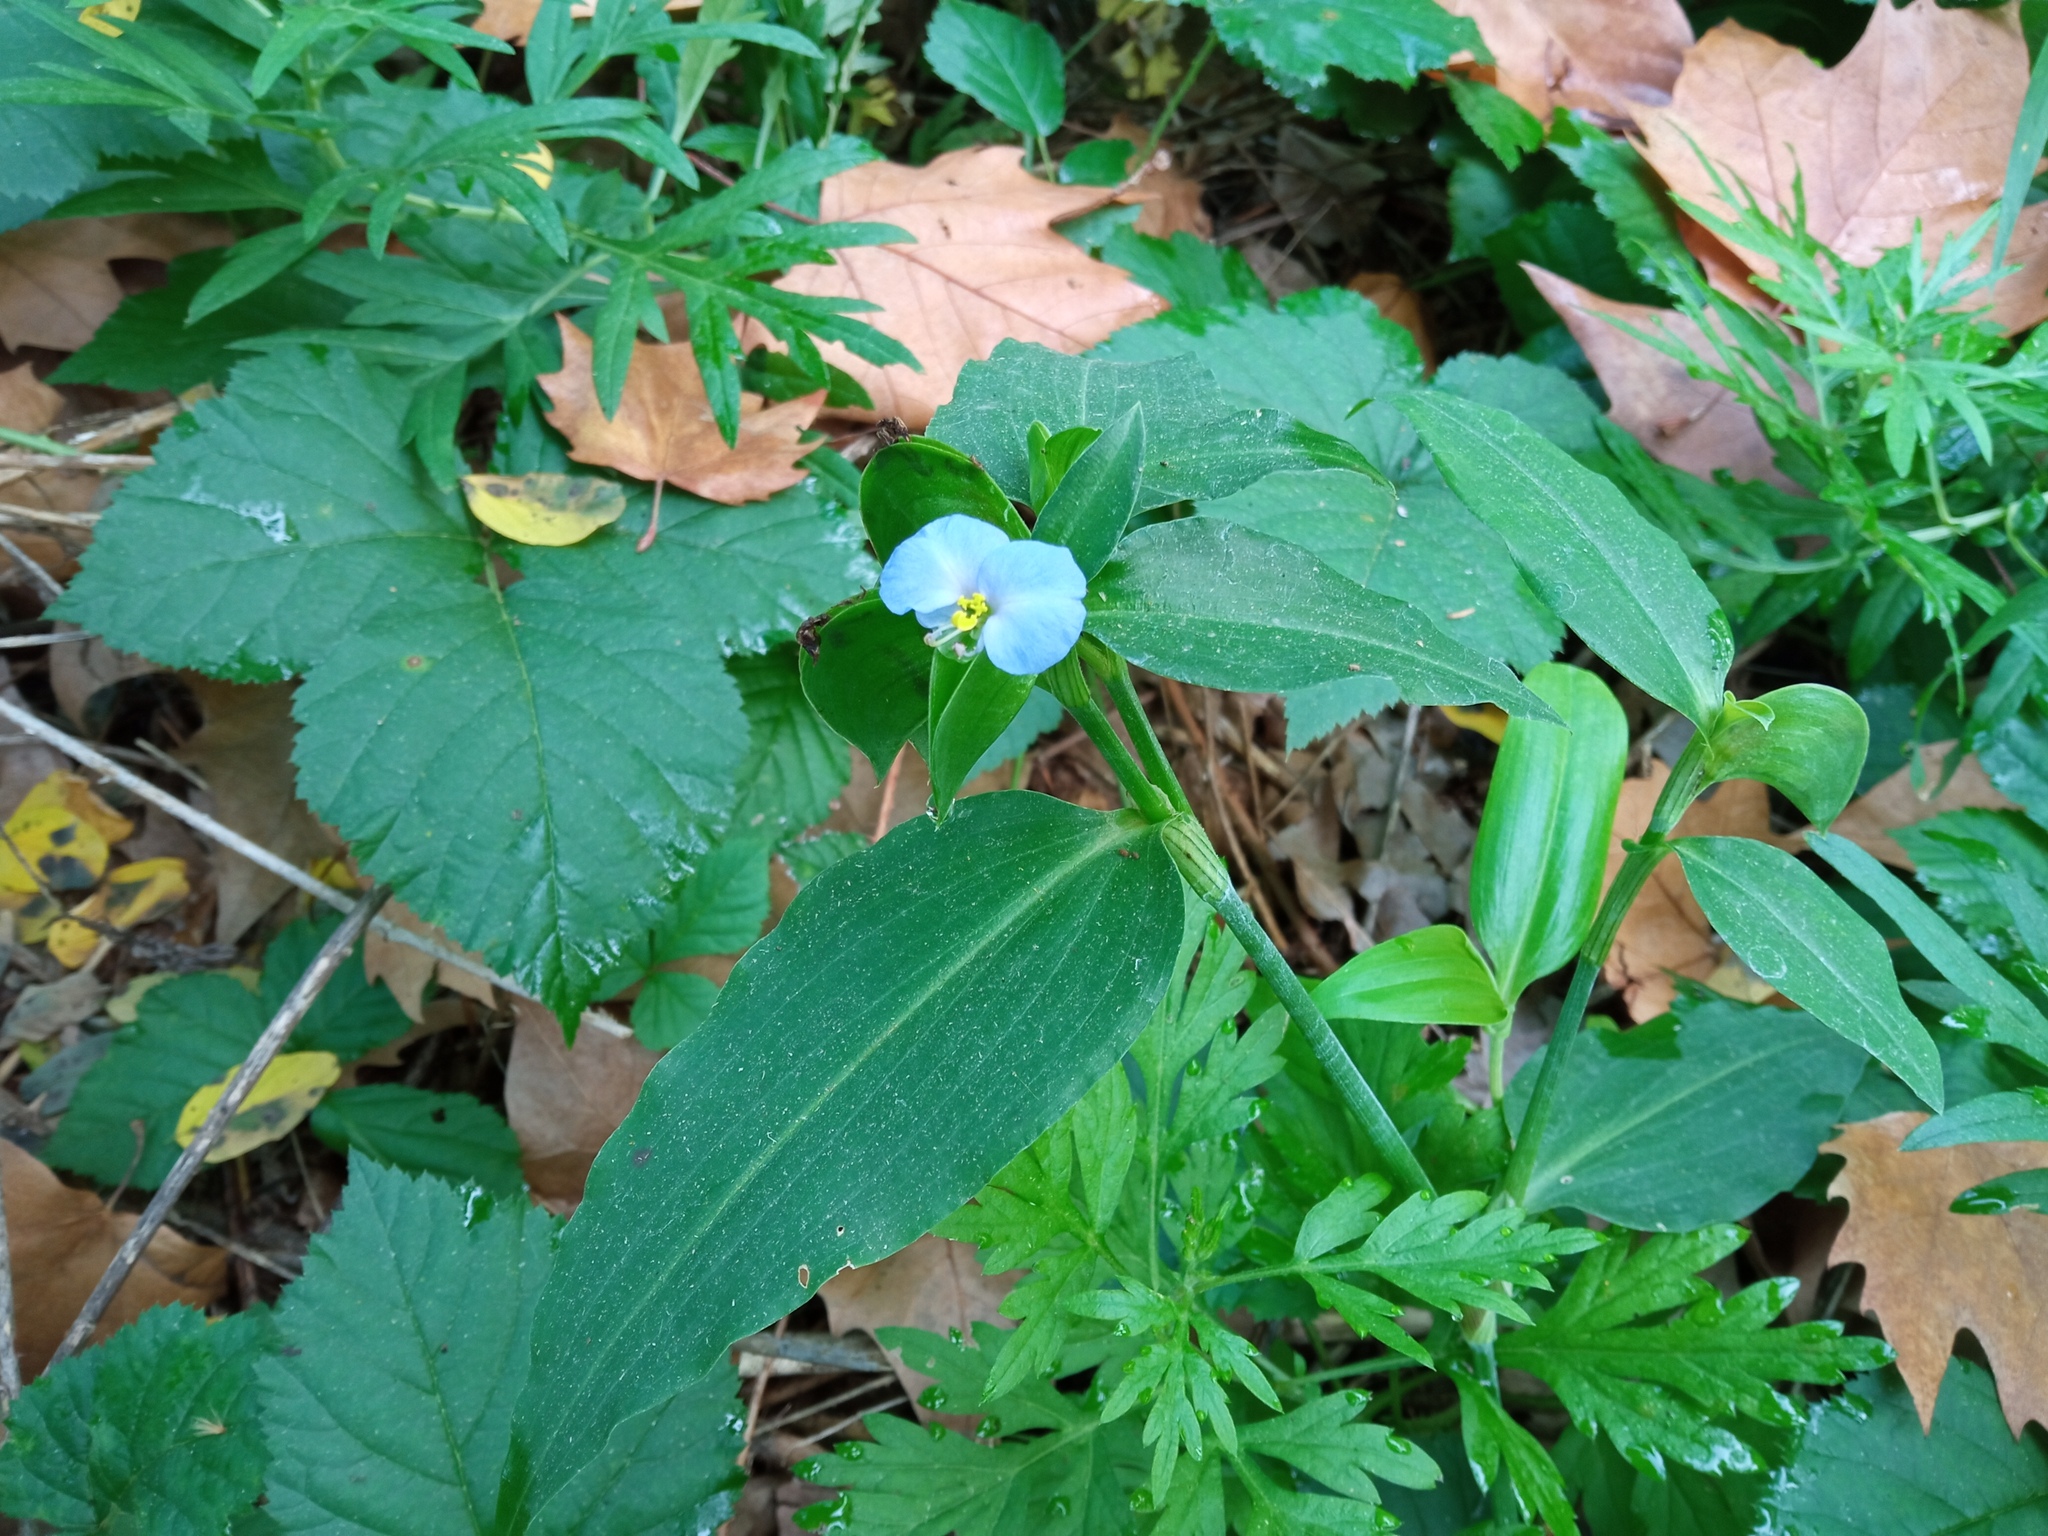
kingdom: Plantae
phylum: Tracheophyta
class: Liliopsida
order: Commelinales
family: Commelinaceae
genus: Commelina
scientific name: Commelina erecta
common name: Blousel blommetjie
